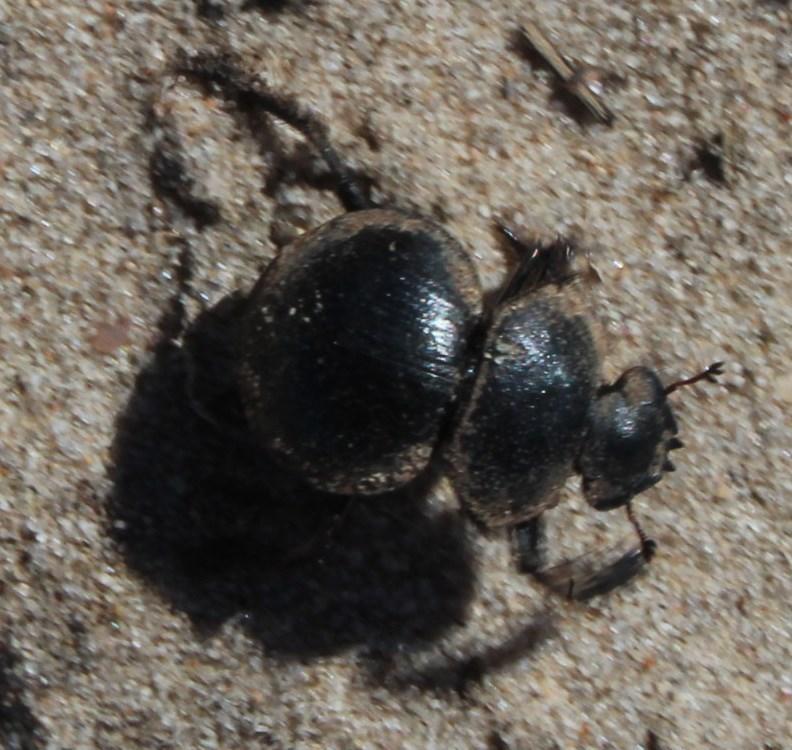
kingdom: Animalia
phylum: Arthropoda
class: Insecta
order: Coleoptera
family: Scarabaeidae
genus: Pachysoma
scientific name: Pachysoma striatum
